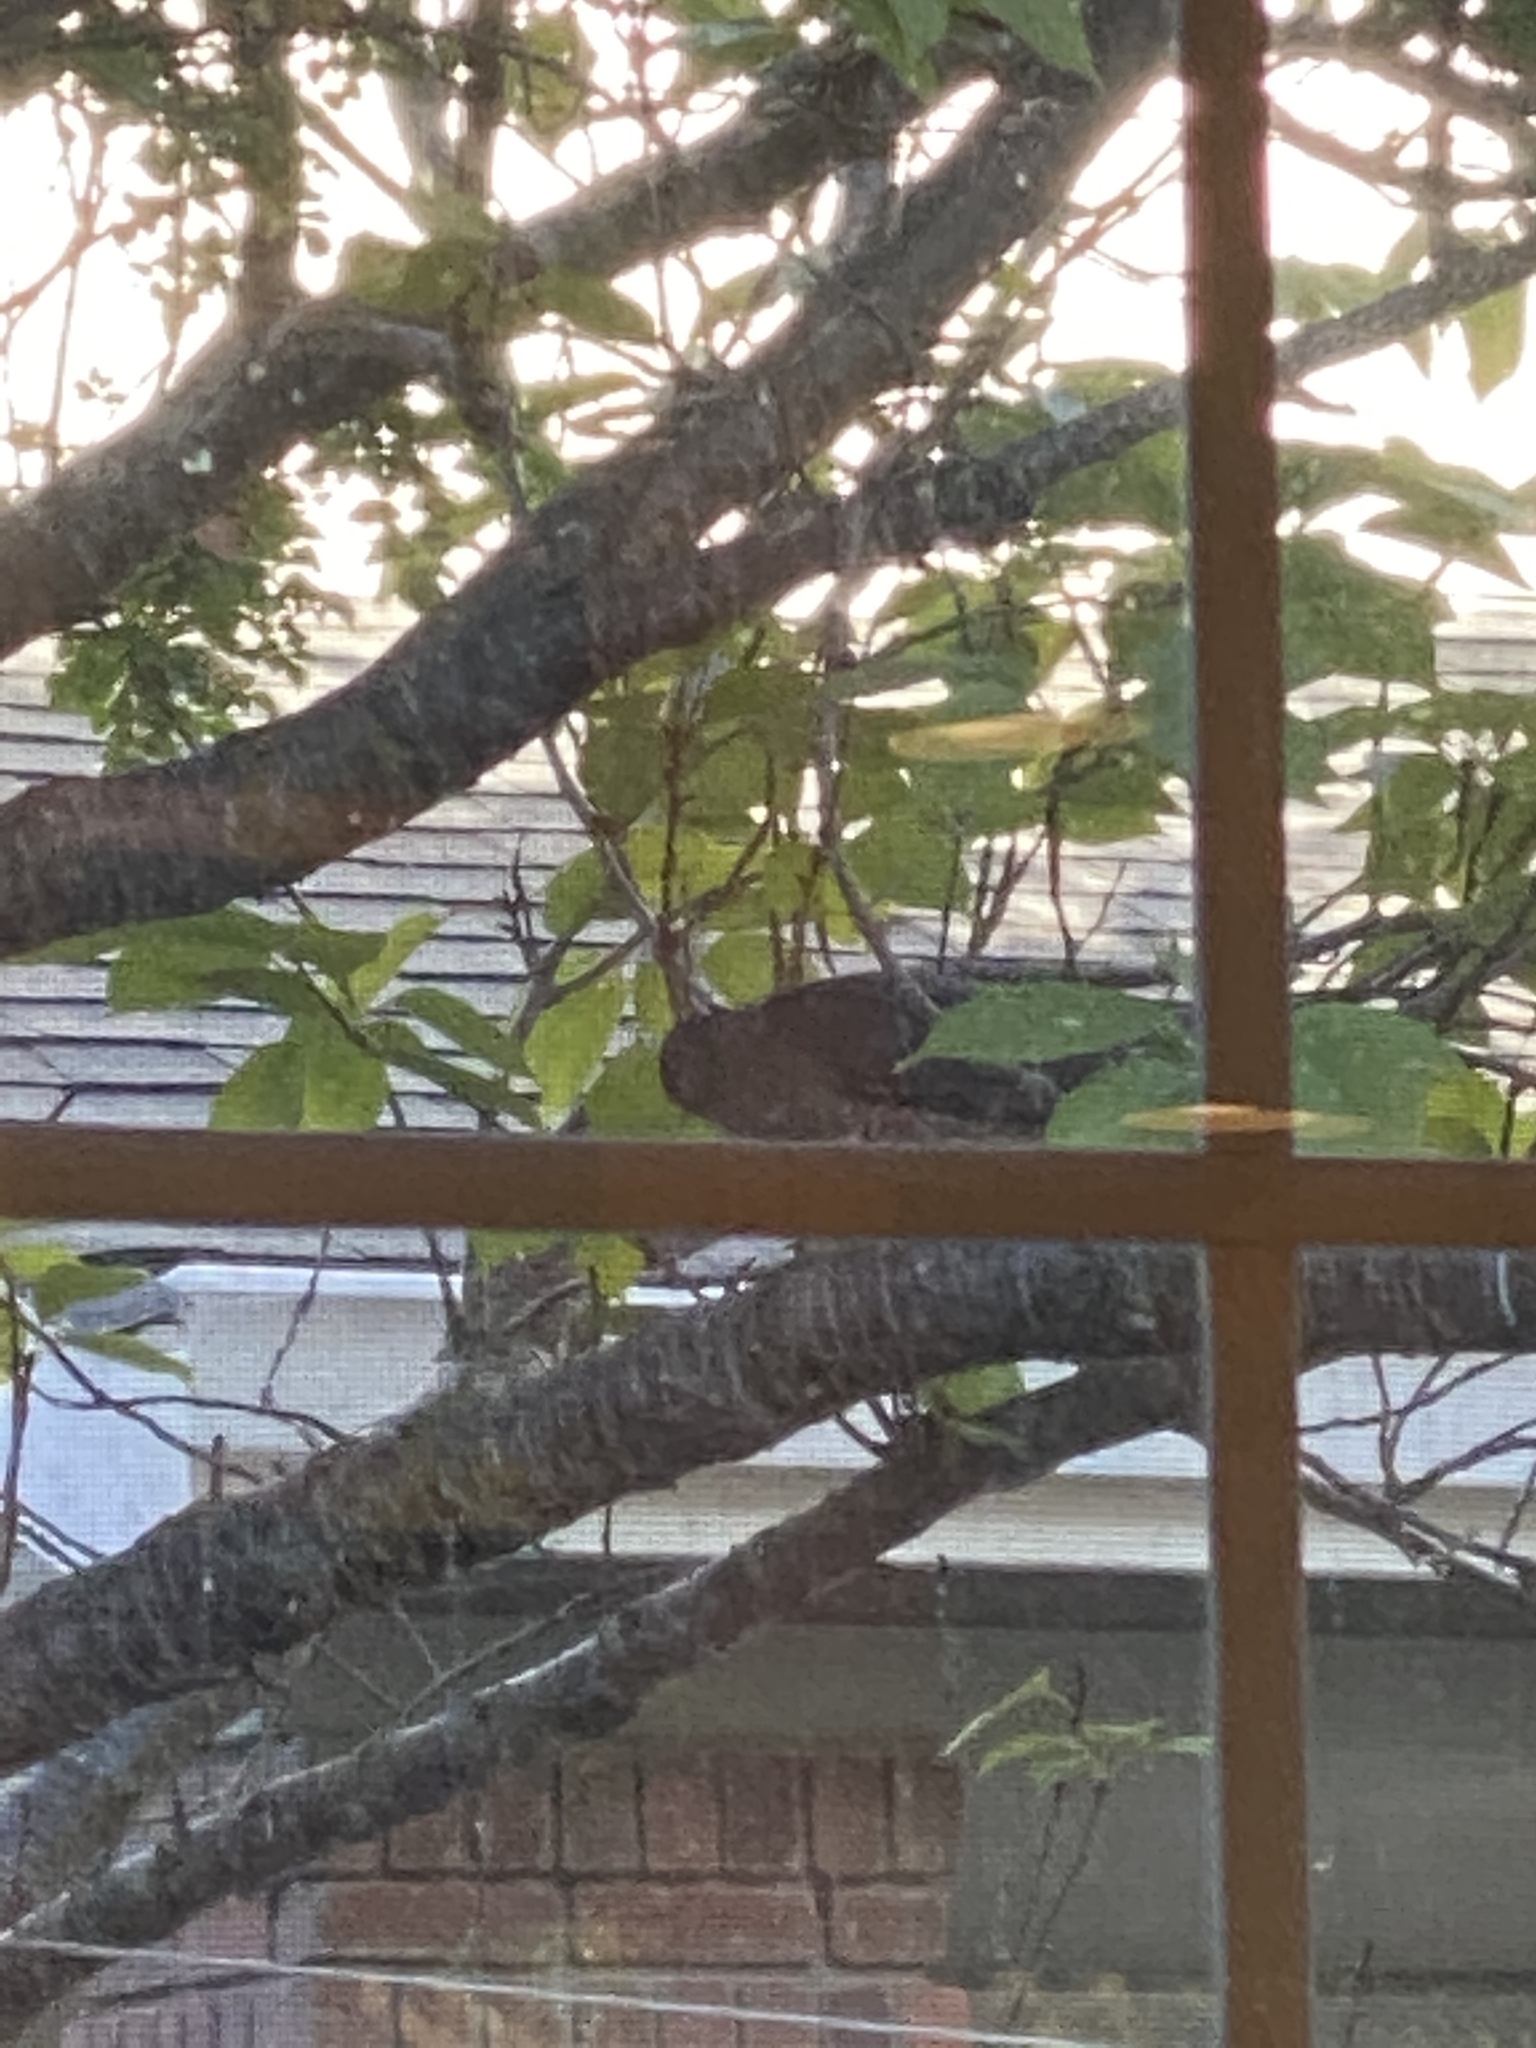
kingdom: Animalia
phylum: Chordata
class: Aves
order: Accipitriformes
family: Accipitridae
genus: Accipiter
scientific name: Accipiter cooperii
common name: Cooper's hawk
